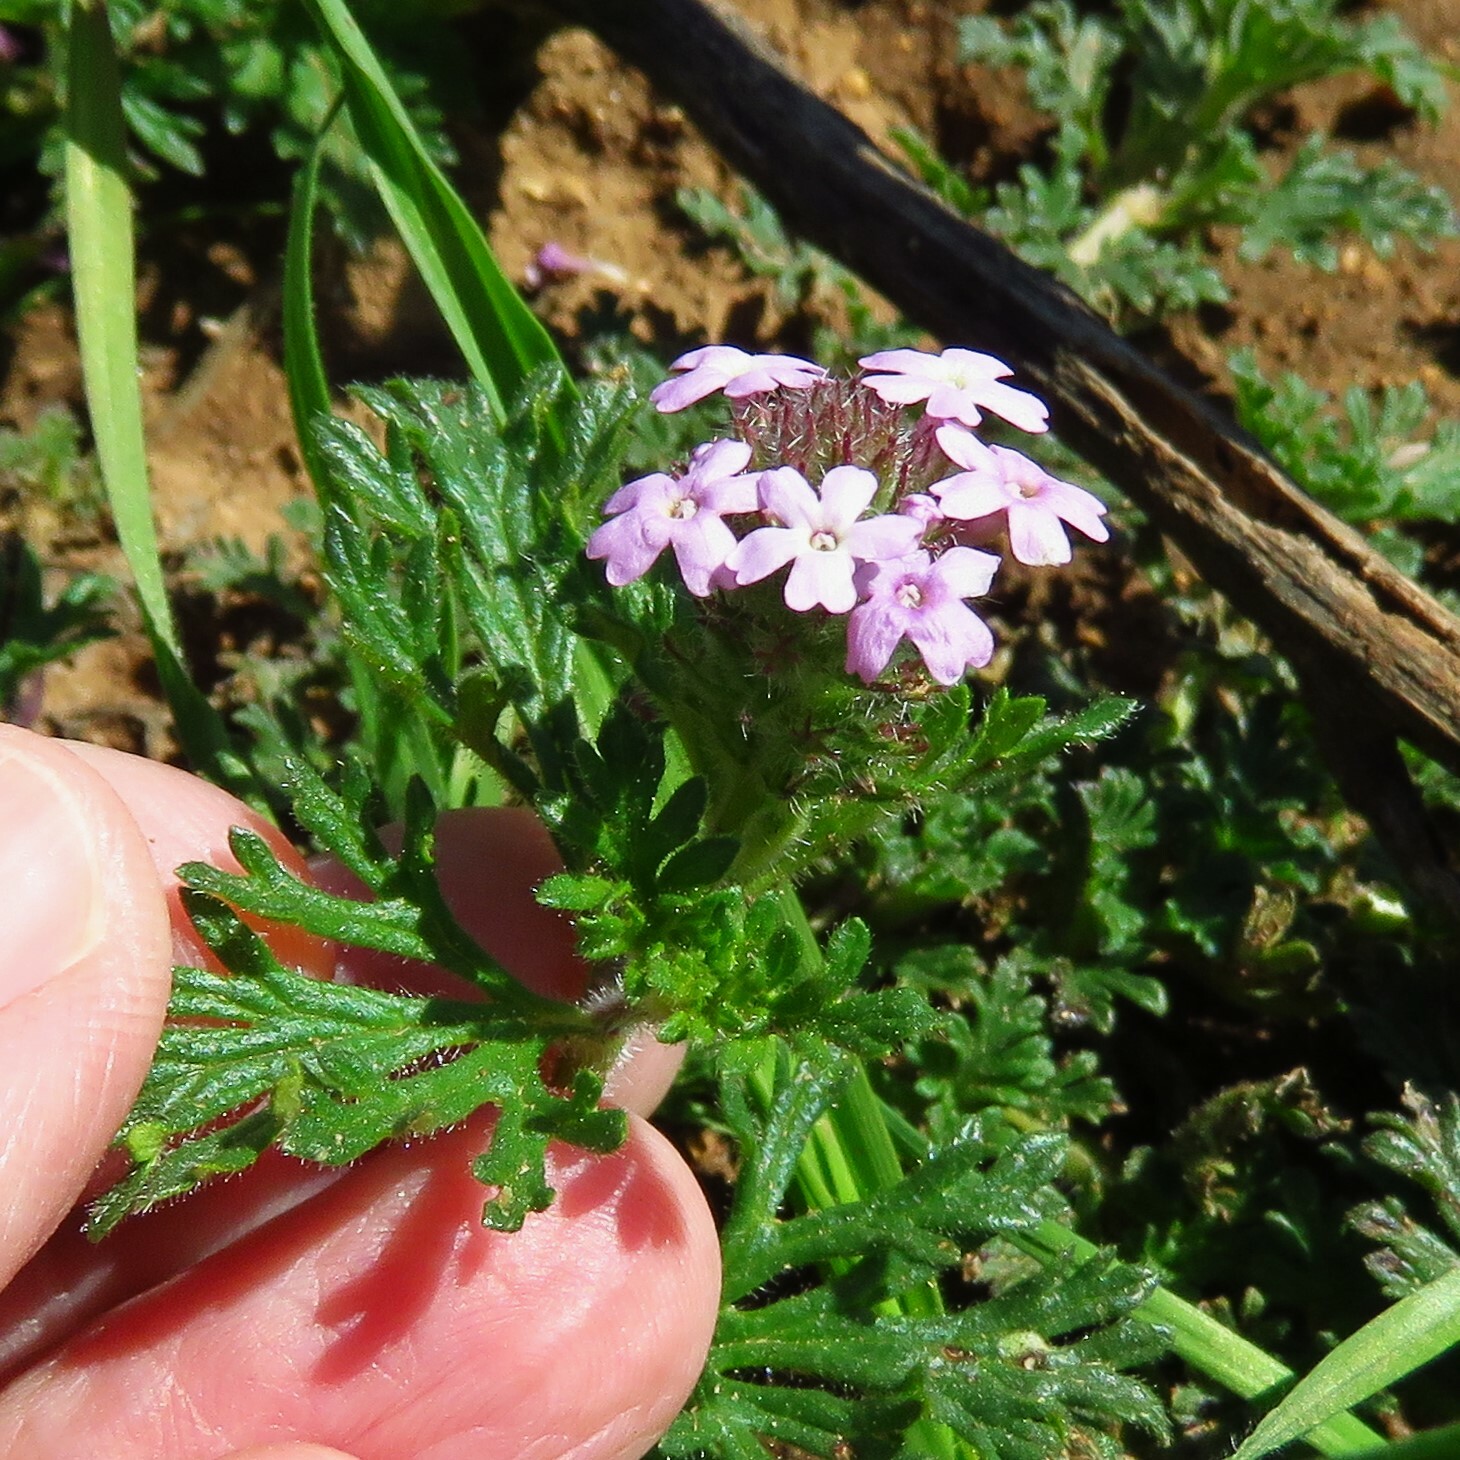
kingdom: Plantae
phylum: Tracheophyta
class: Magnoliopsida
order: Lamiales
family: Verbenaceae
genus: Verbena
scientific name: Verbena pumila
